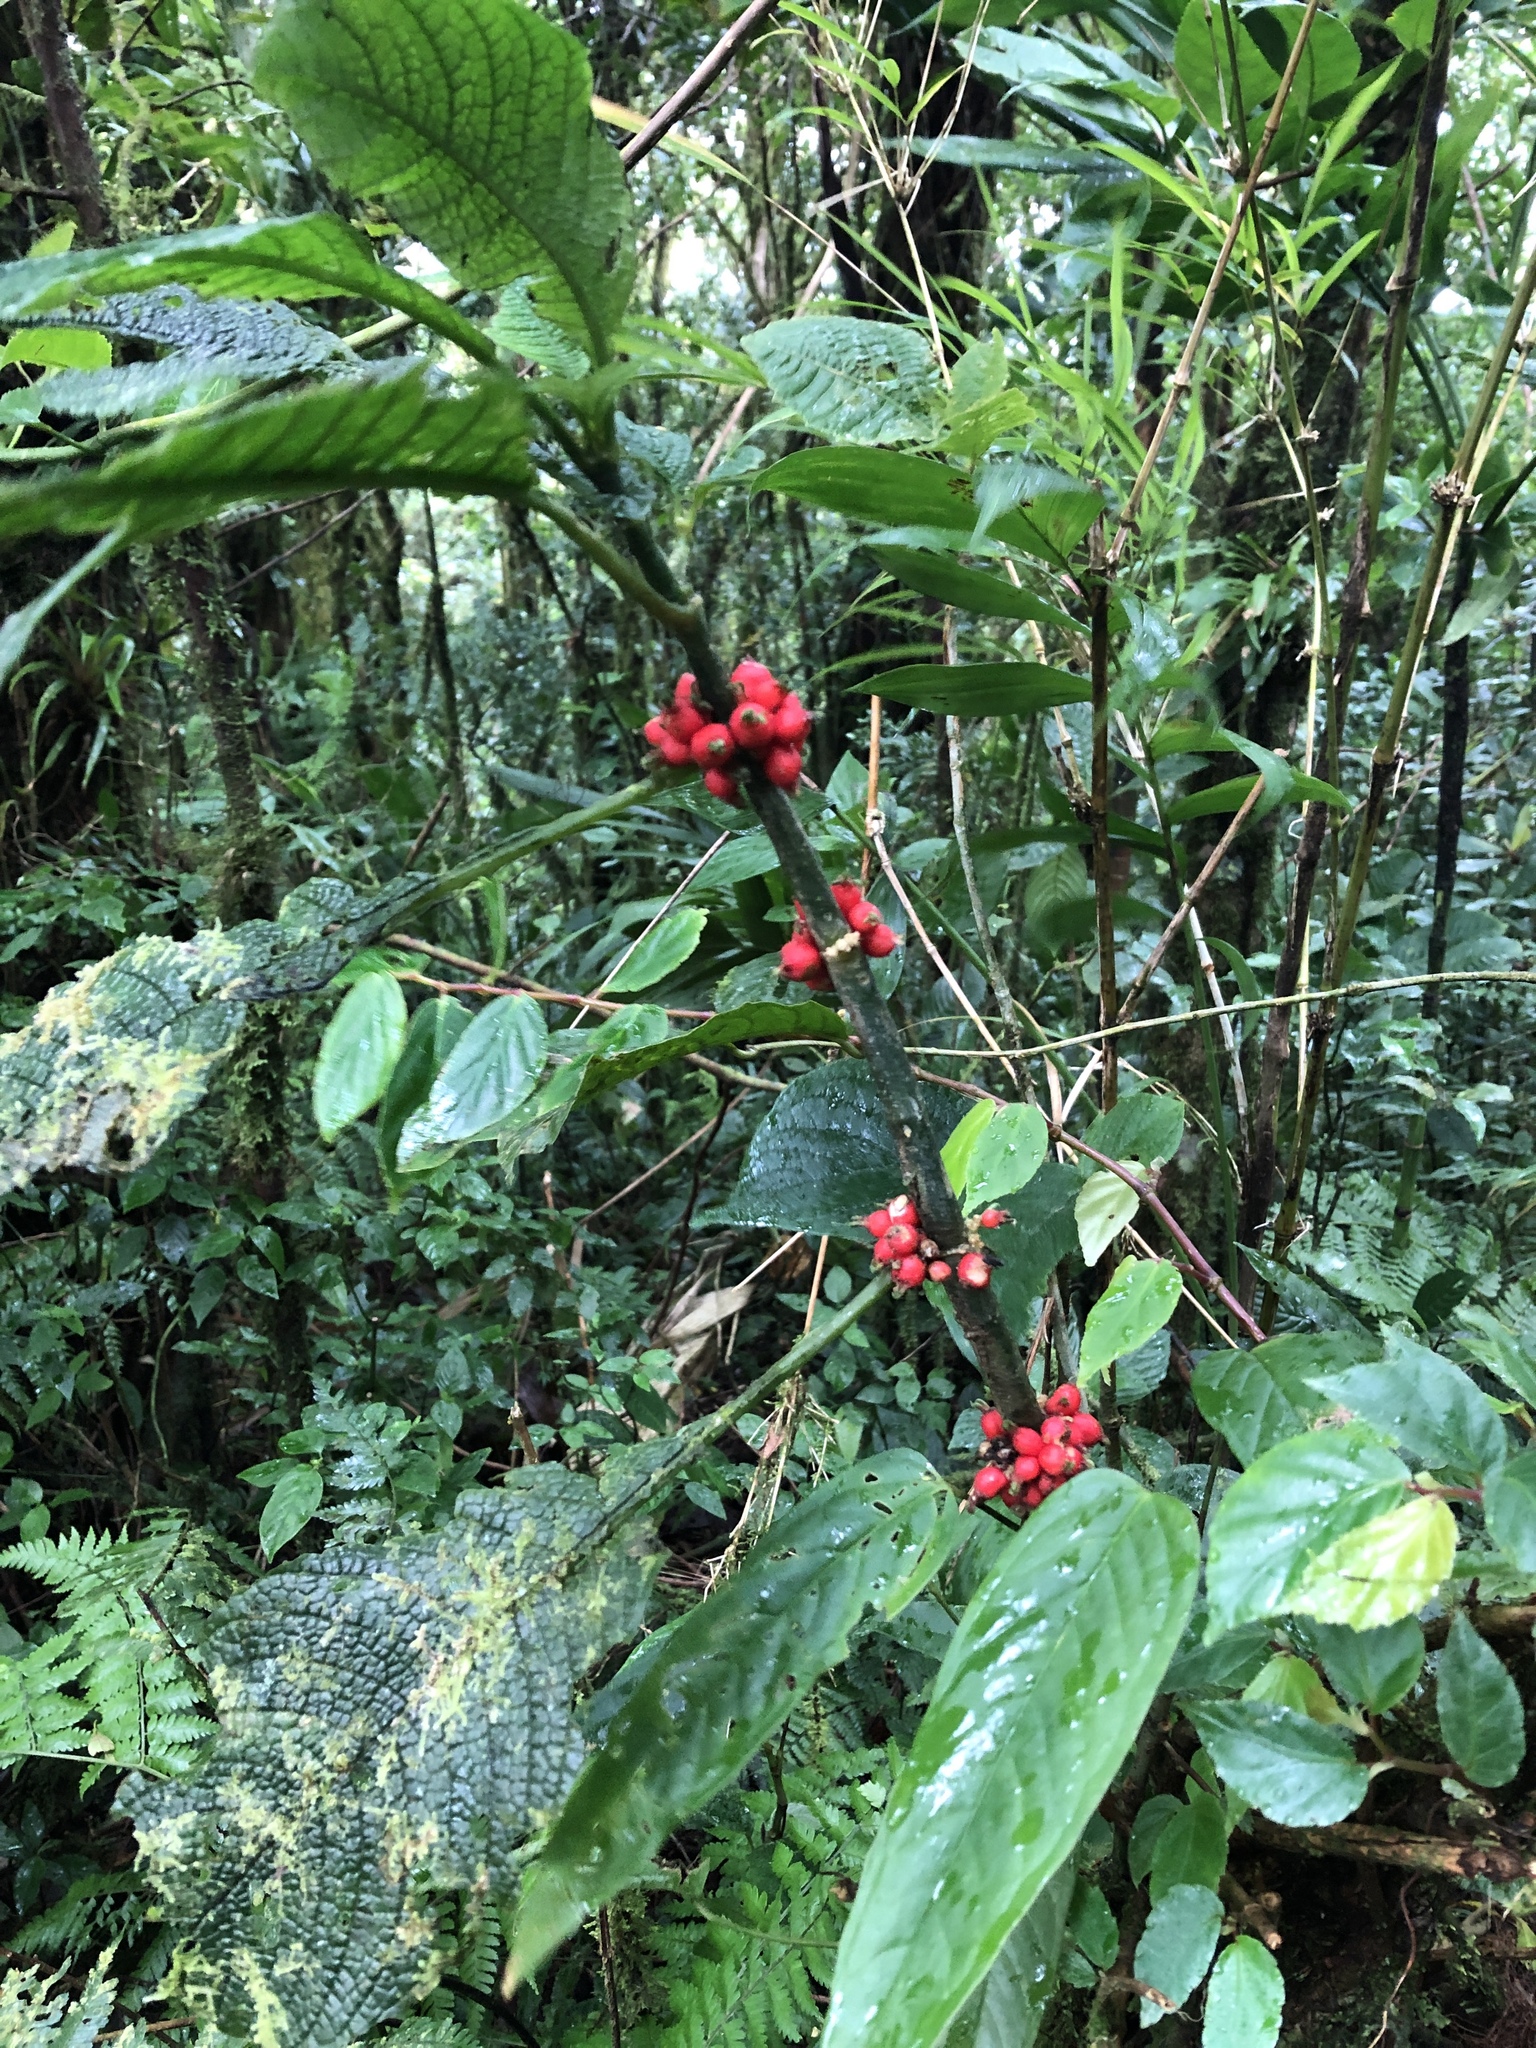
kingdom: Plantae
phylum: Tracheophyta
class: Magnoliopsida
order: Gentianales
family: Rubiaceae
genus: Hoffmannia
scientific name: Hoffmannia areolata
